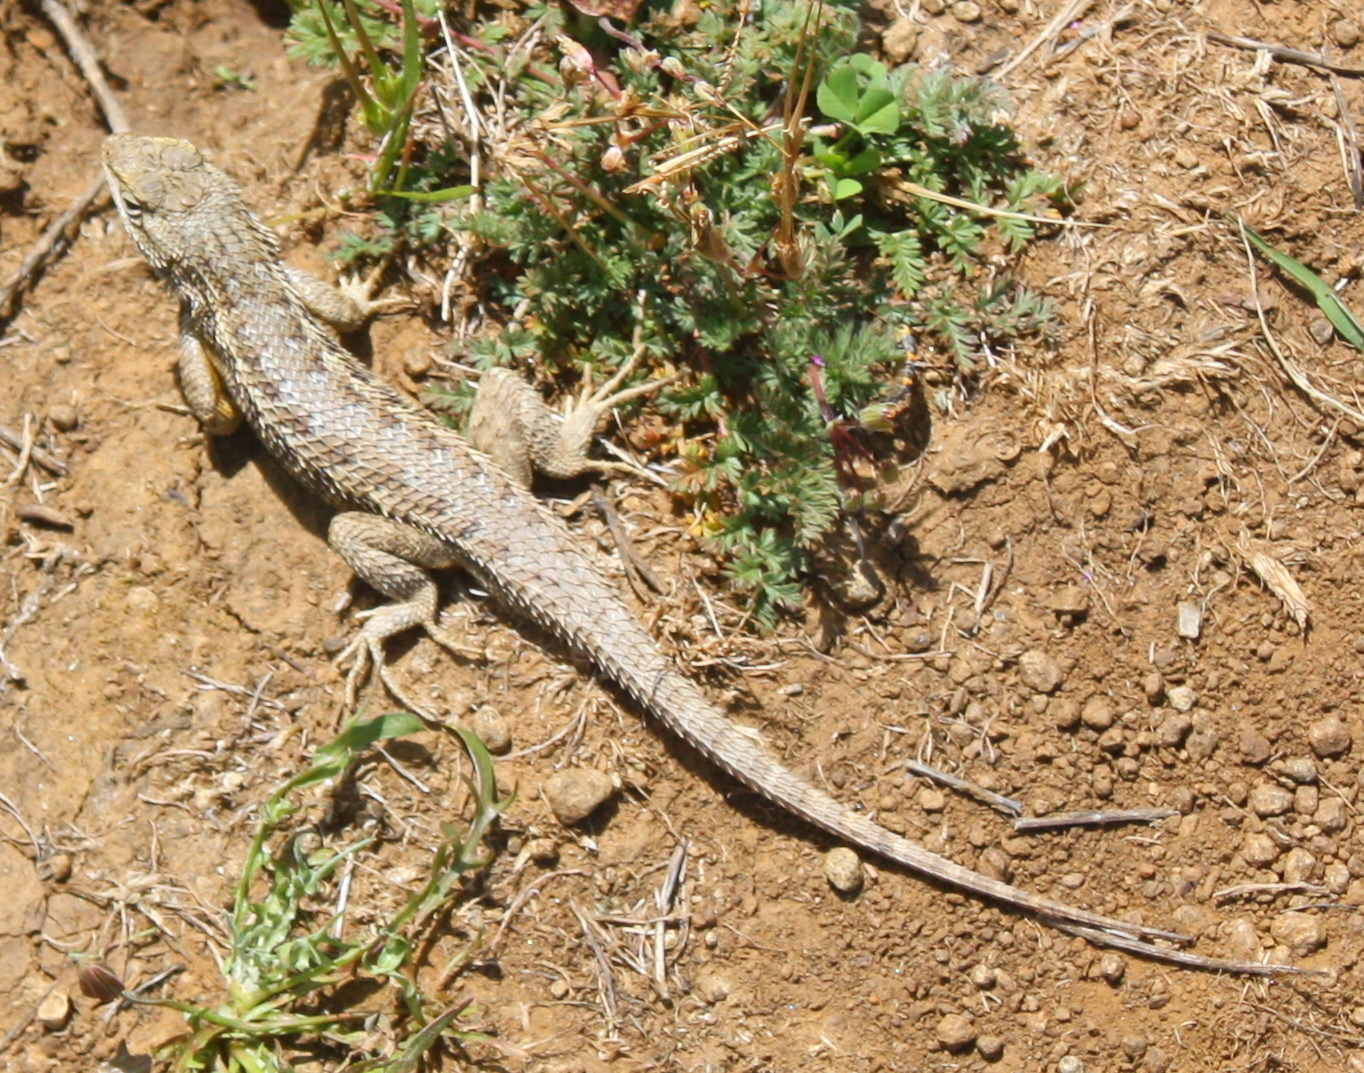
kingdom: Animalia
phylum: Chordata
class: Squamata
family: Phrynosomatidae
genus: Sceloporus
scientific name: Sceloporus occidentalis
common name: Western fence lizard
